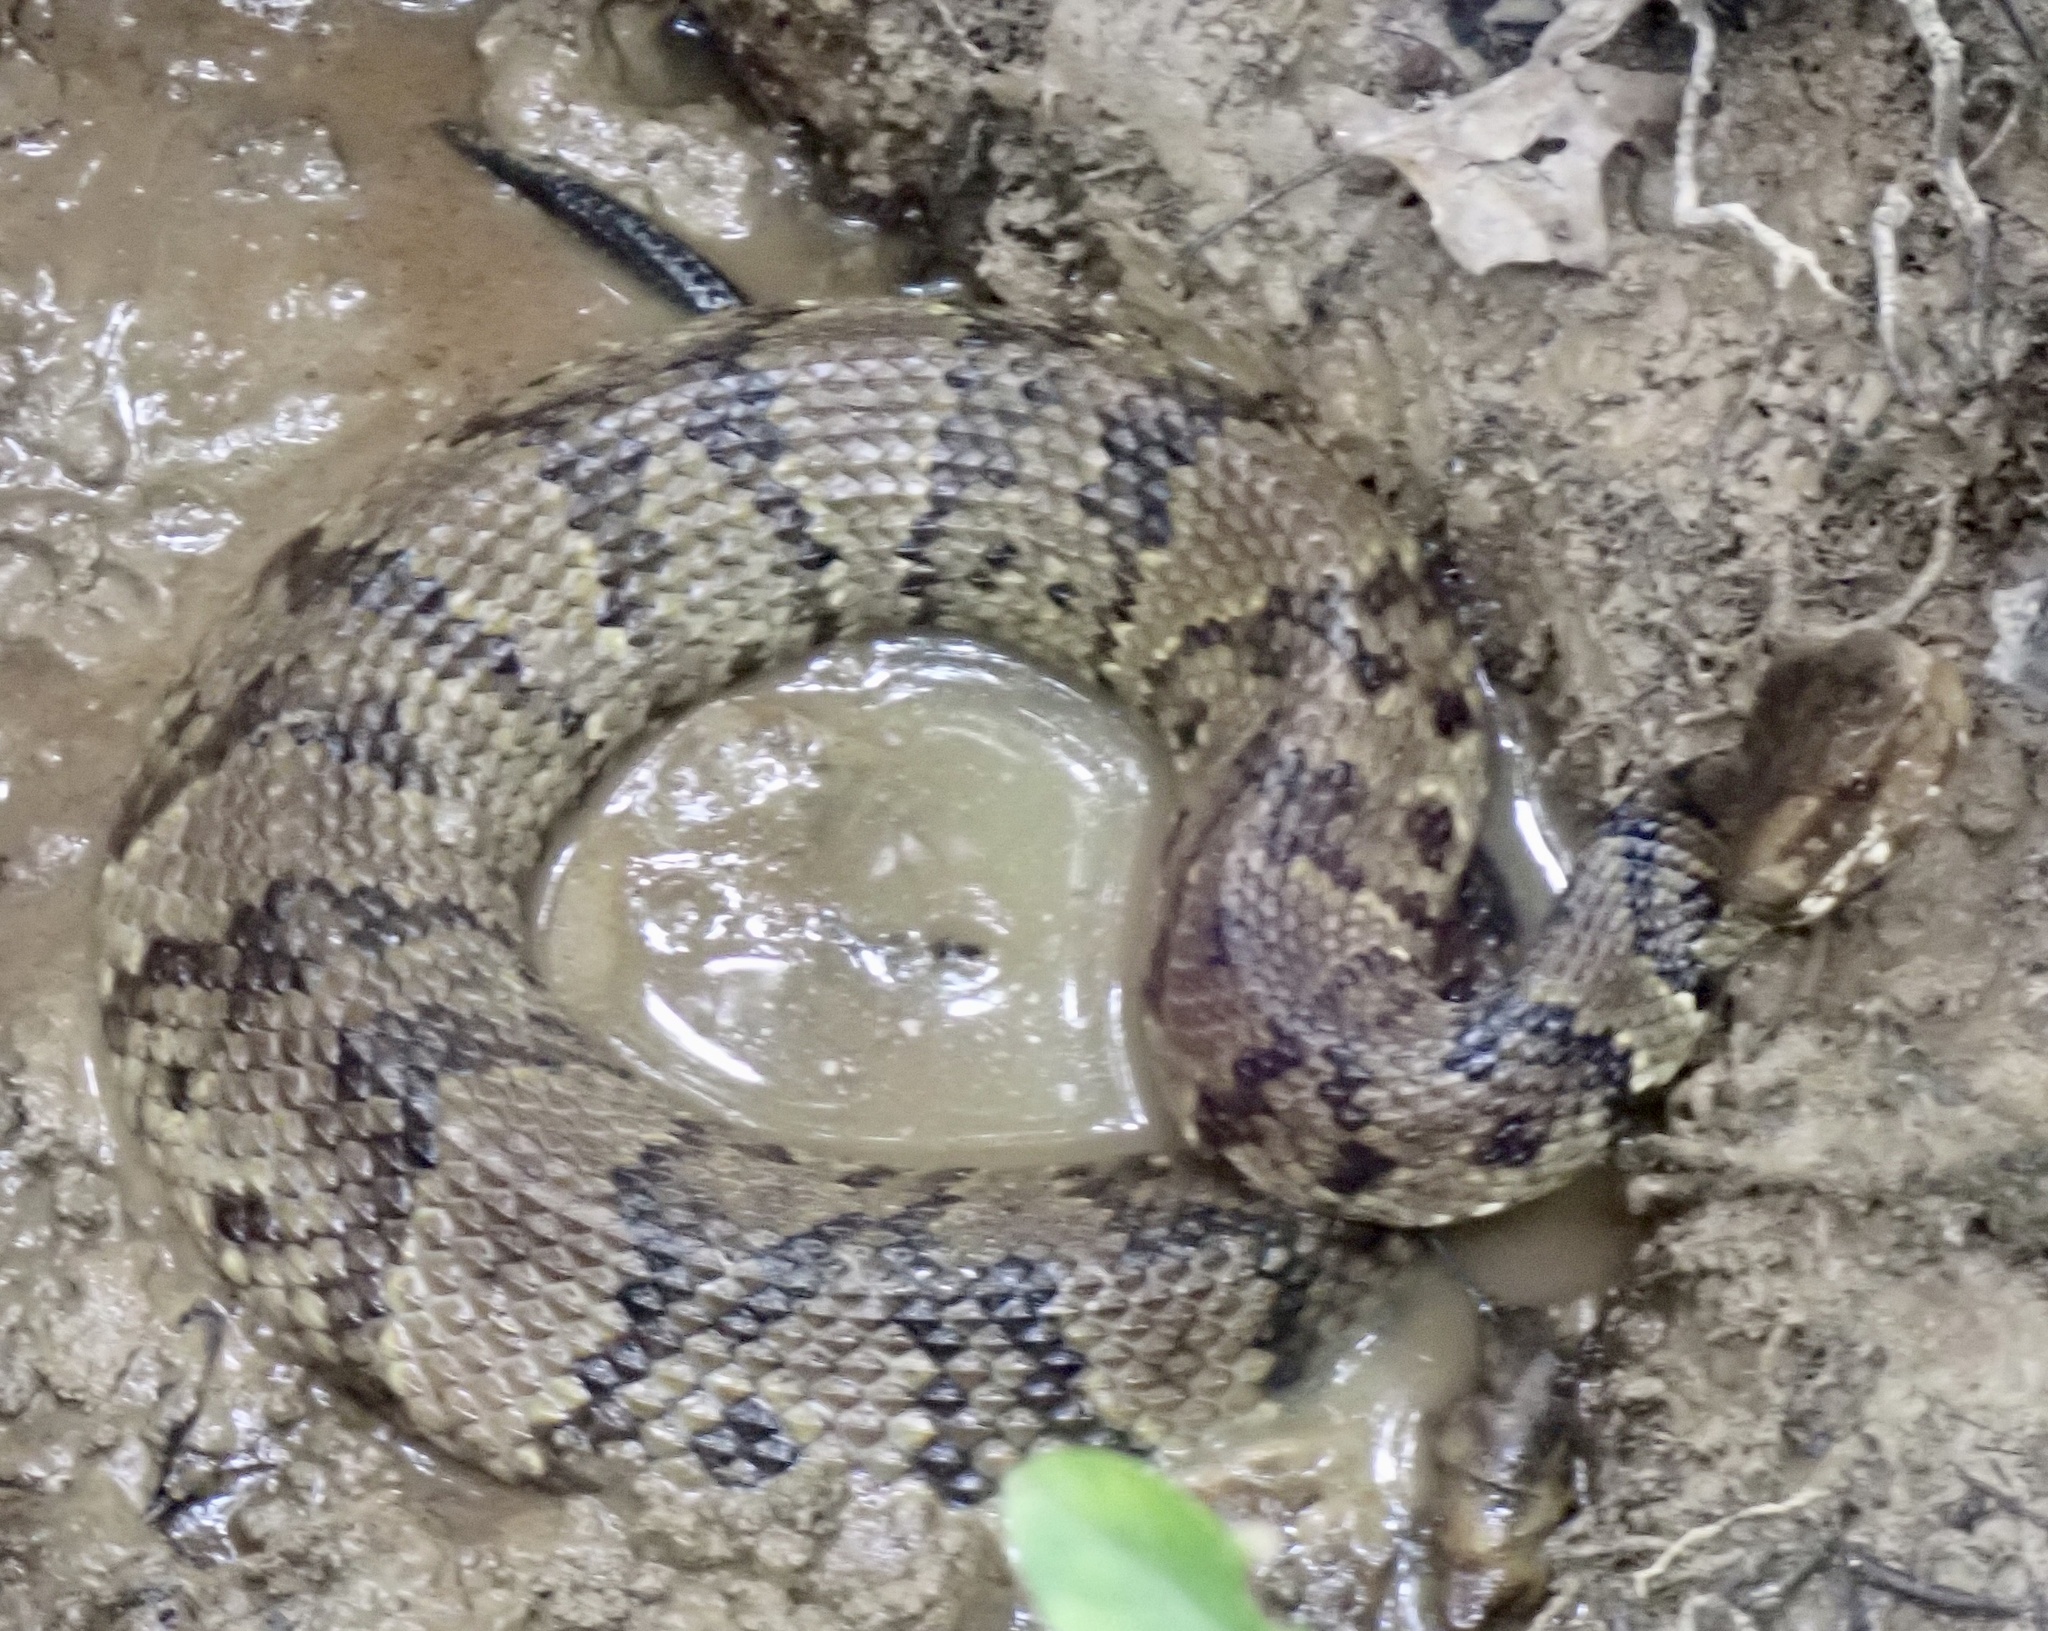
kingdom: Animalia
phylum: Chordata
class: Squamata
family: Viperidae
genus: Agkistrodon
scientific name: Agkistrodon piscivorus
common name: Cottonmouth
